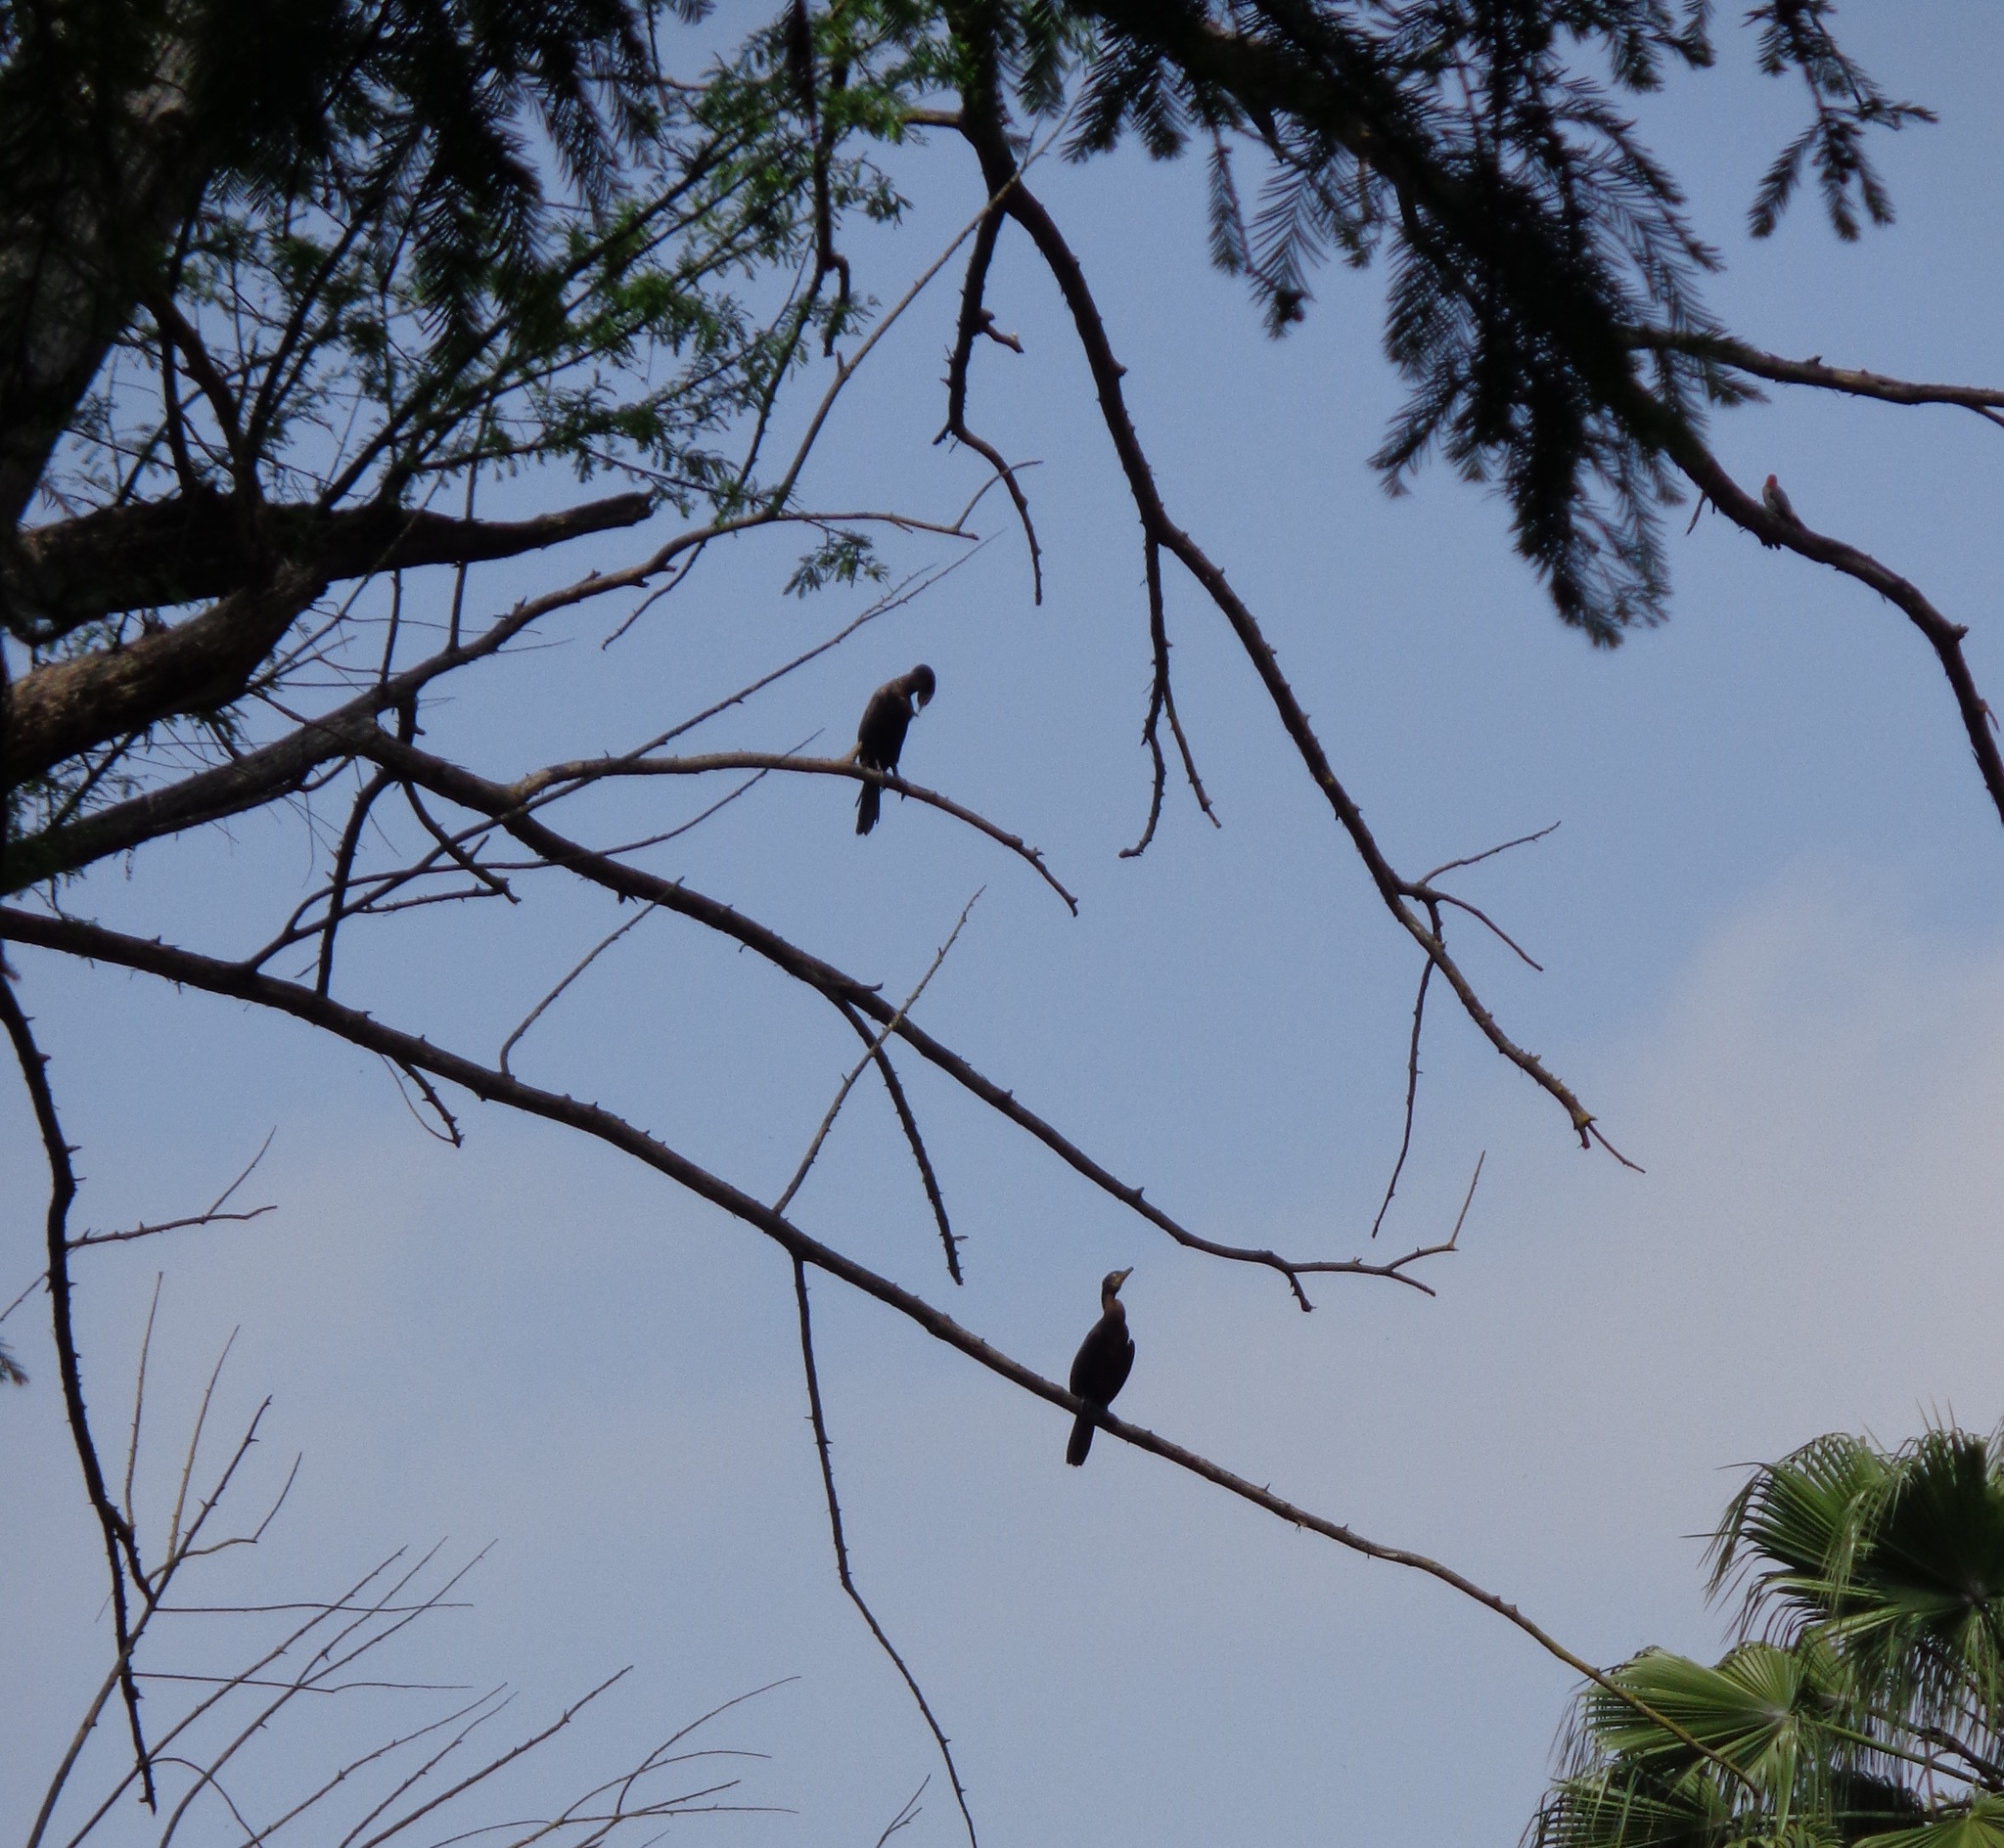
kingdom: Animalia
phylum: Chordata
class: Aves
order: Suliformes
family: Phalacrocoracidae
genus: Phalacrocorax
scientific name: Phalacrocorax brasilianus
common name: Neotropic cormorant
